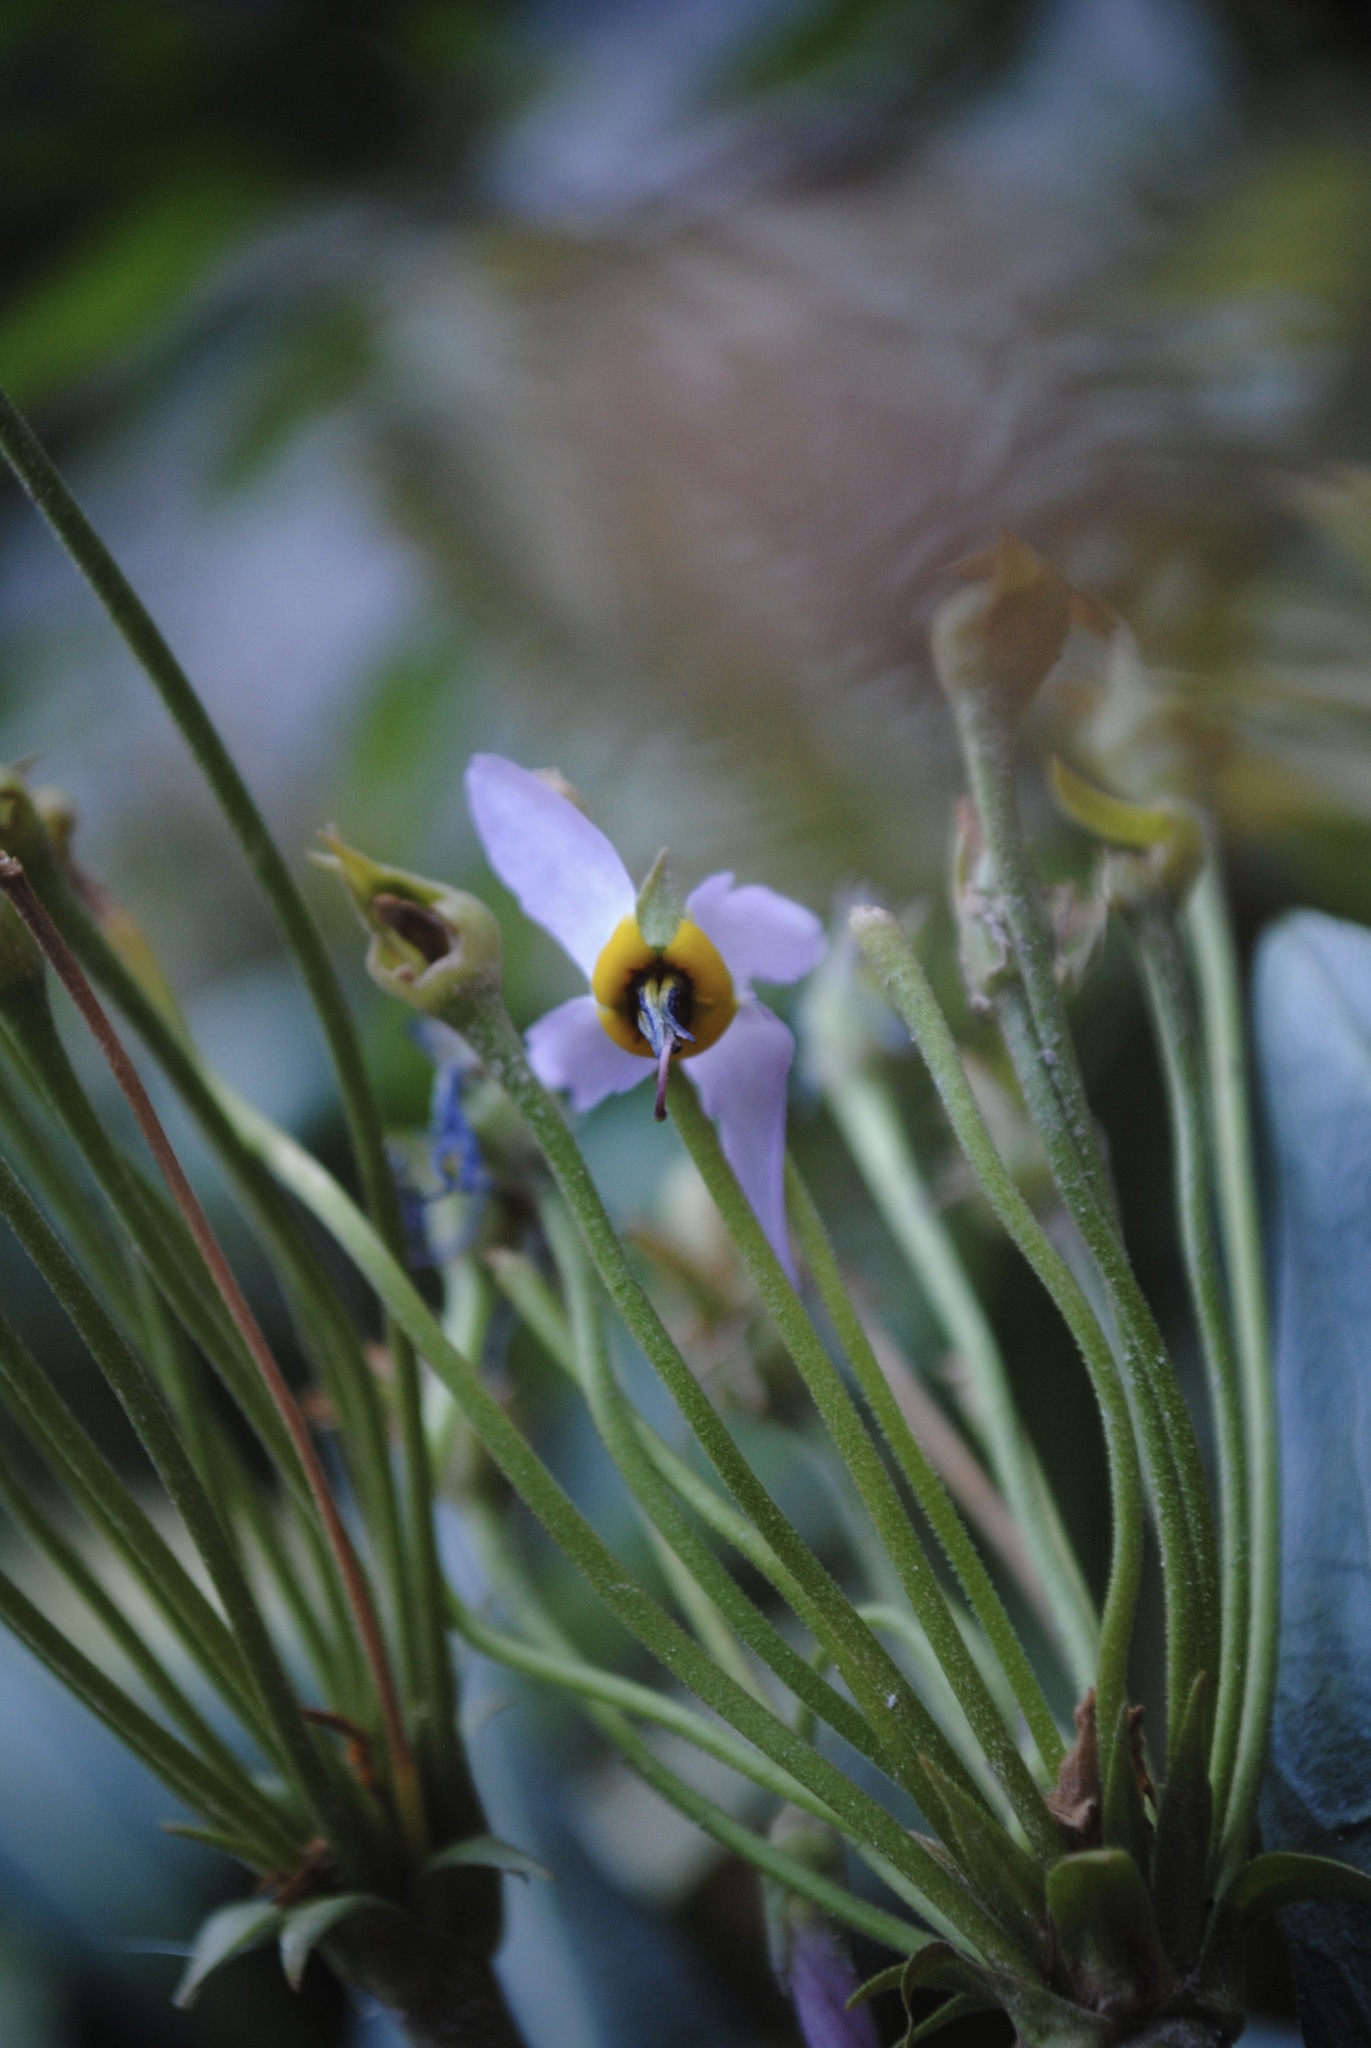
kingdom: Plantae
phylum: Tracheophyta
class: Magnoliopsida
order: Ericales
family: Primulaceae
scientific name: Primulaceae
